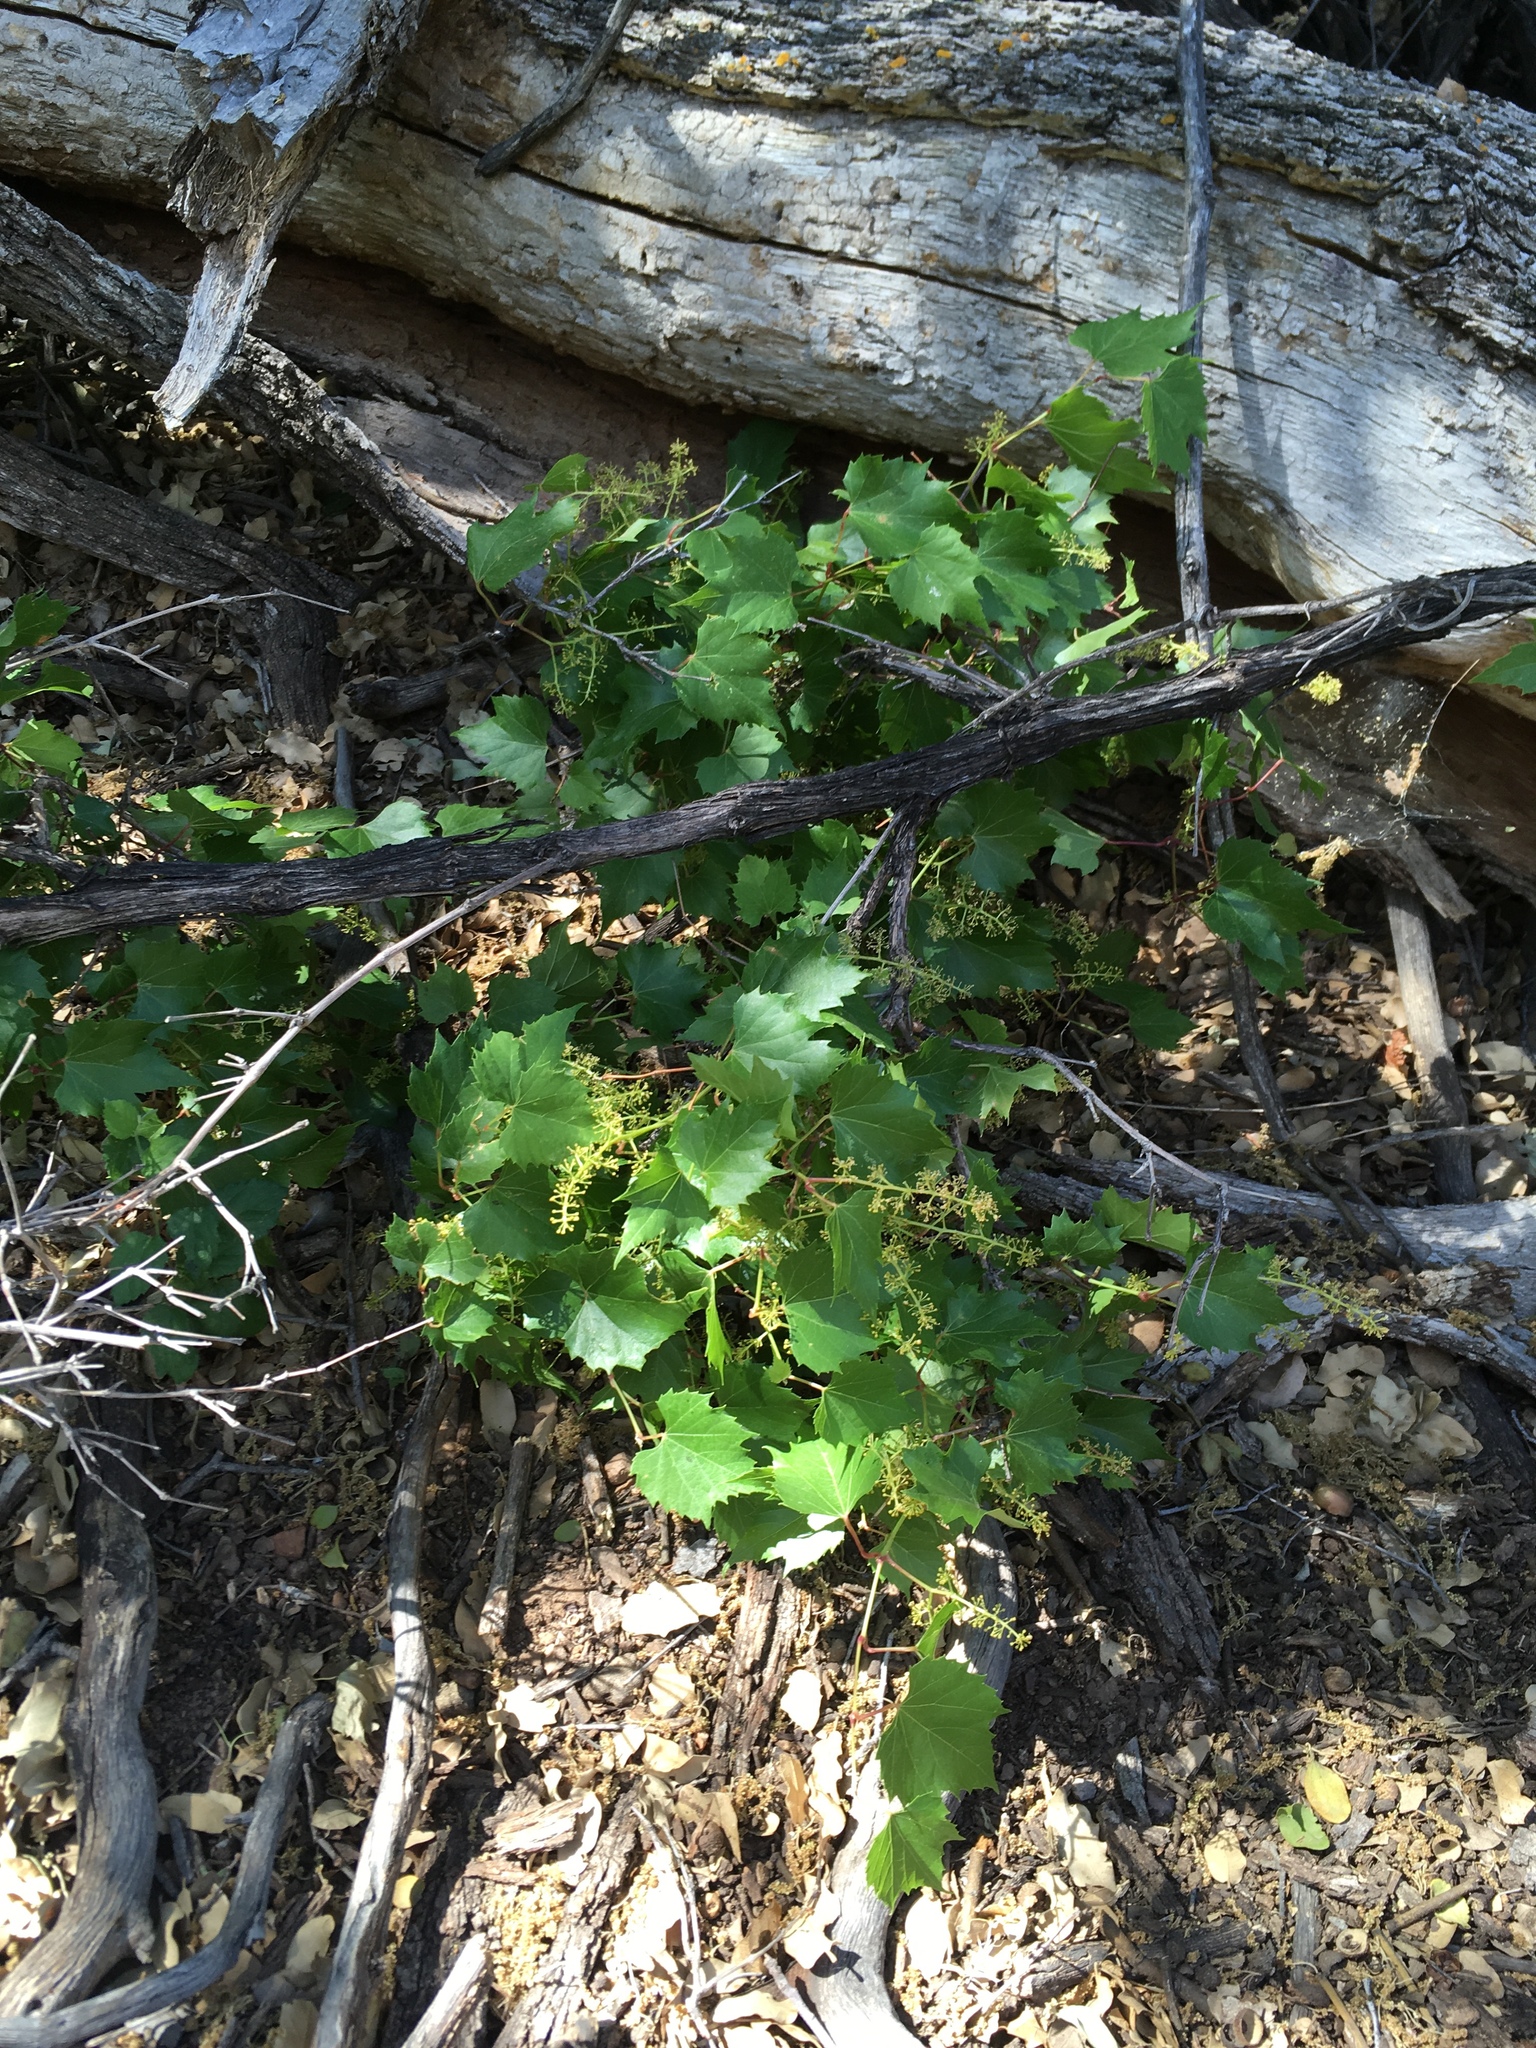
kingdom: Plantae
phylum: Tracheophyta
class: Magnoliopsida
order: Vitales
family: Vitaceae
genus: Vitis
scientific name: Vitis arizonica
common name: Canyon grape
